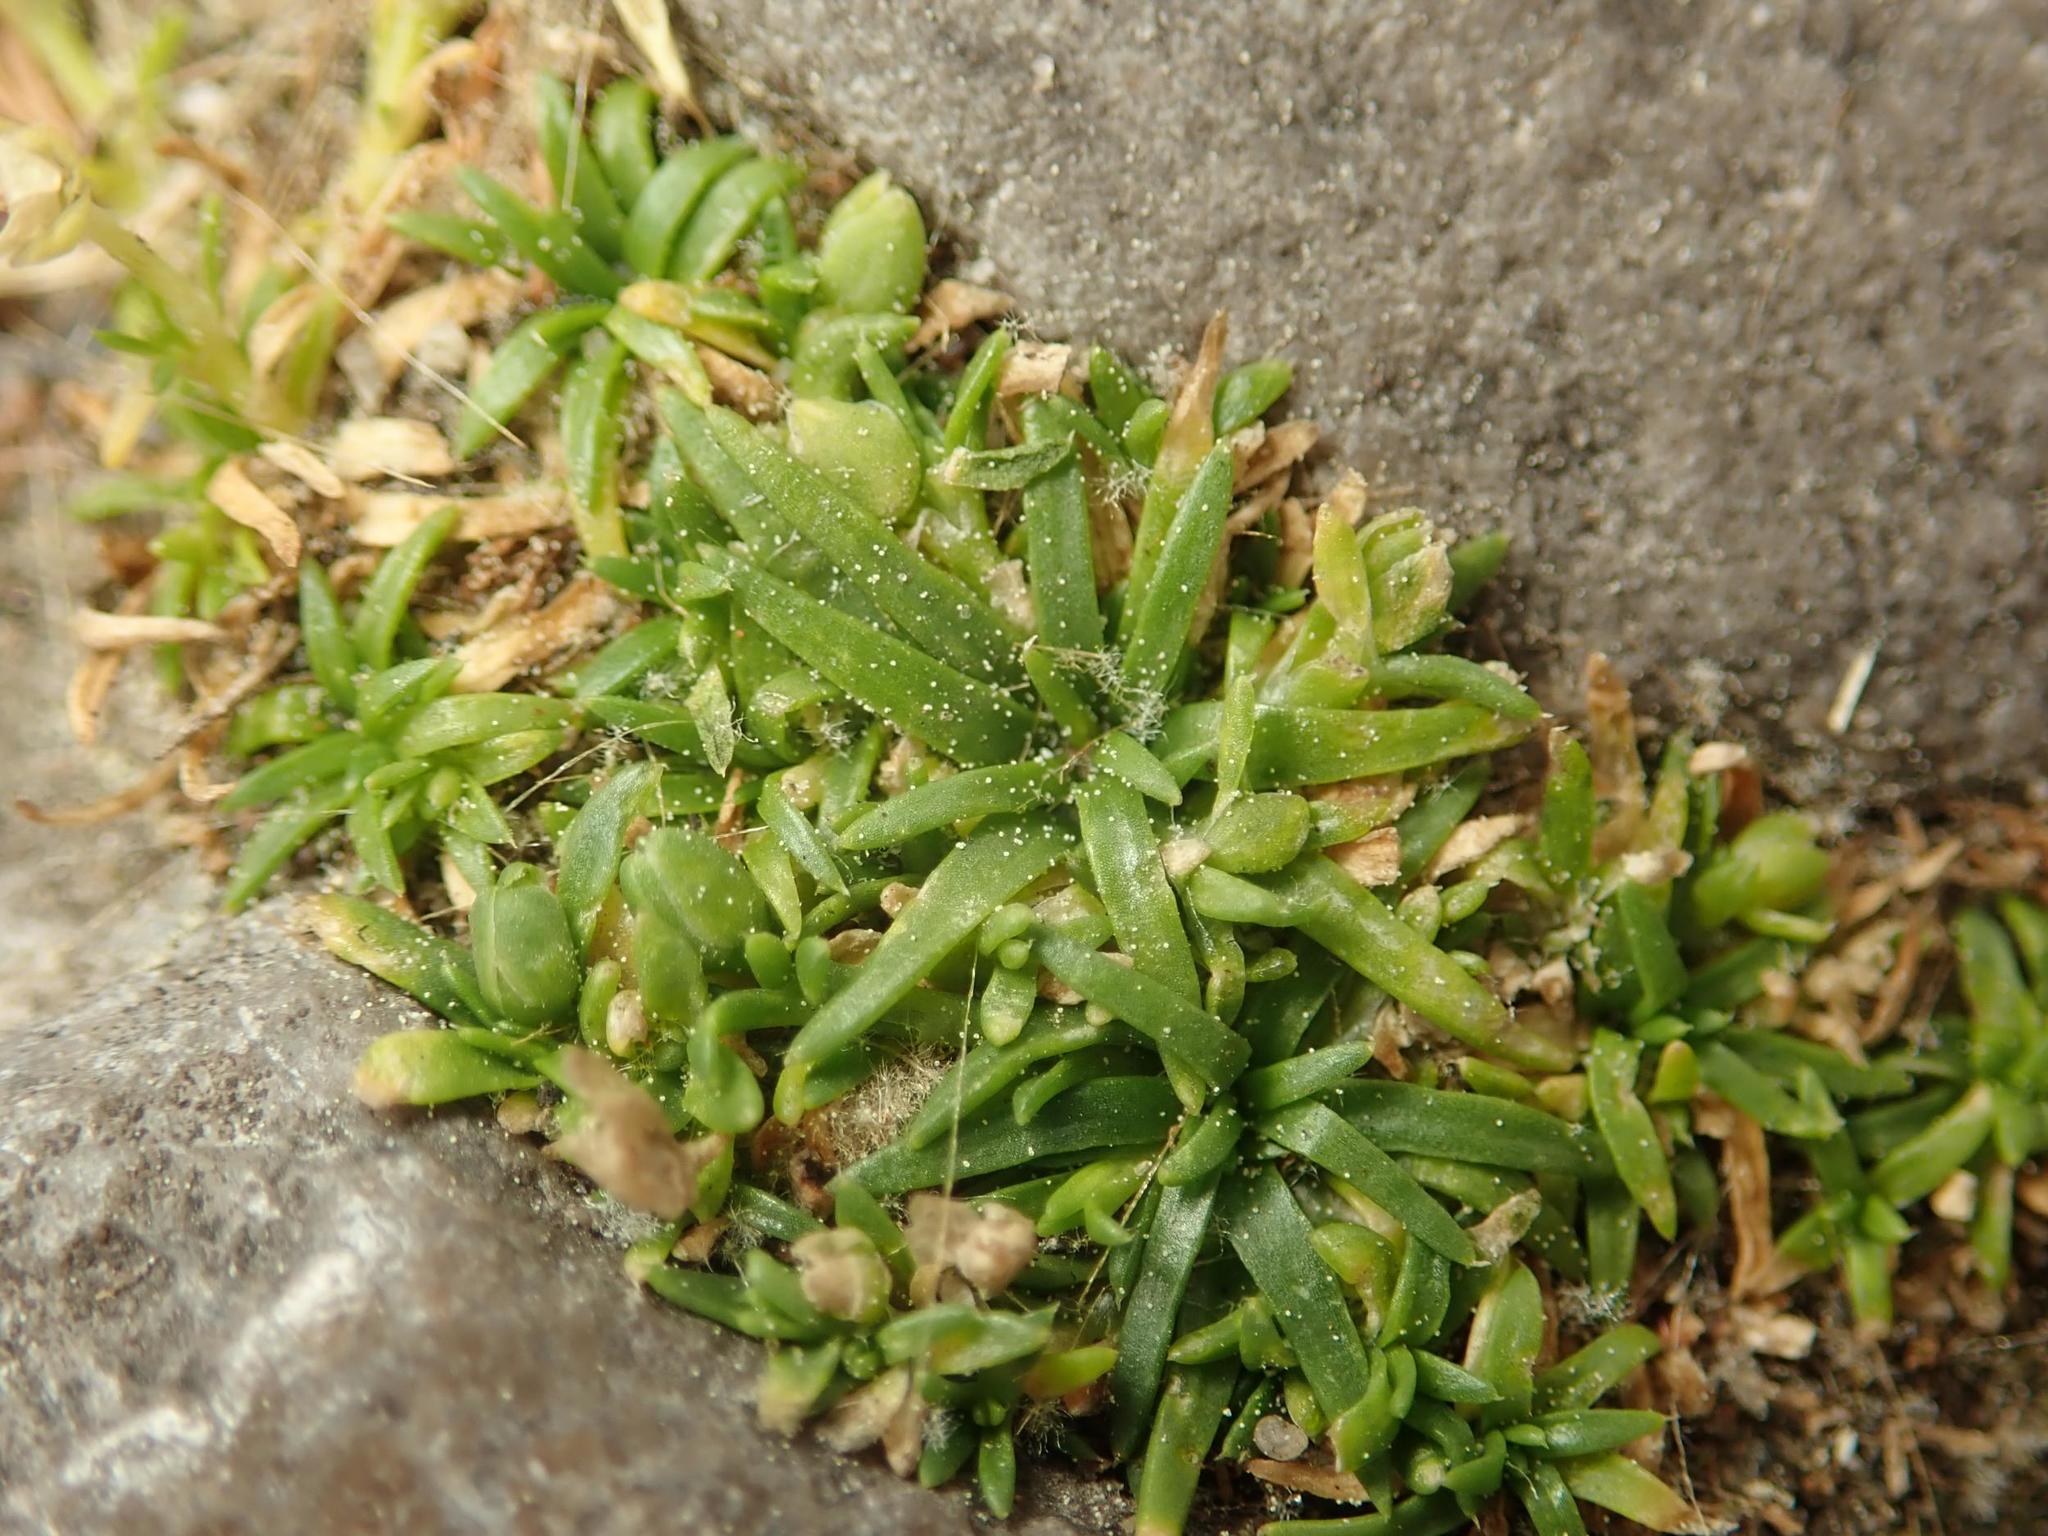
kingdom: Plantae
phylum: Tracheophyta
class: Magnoliopsida
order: Caryophyllales
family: Caryophyllaceae
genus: Sagina
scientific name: Sagina procumbens
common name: Procumbent pearlwort
